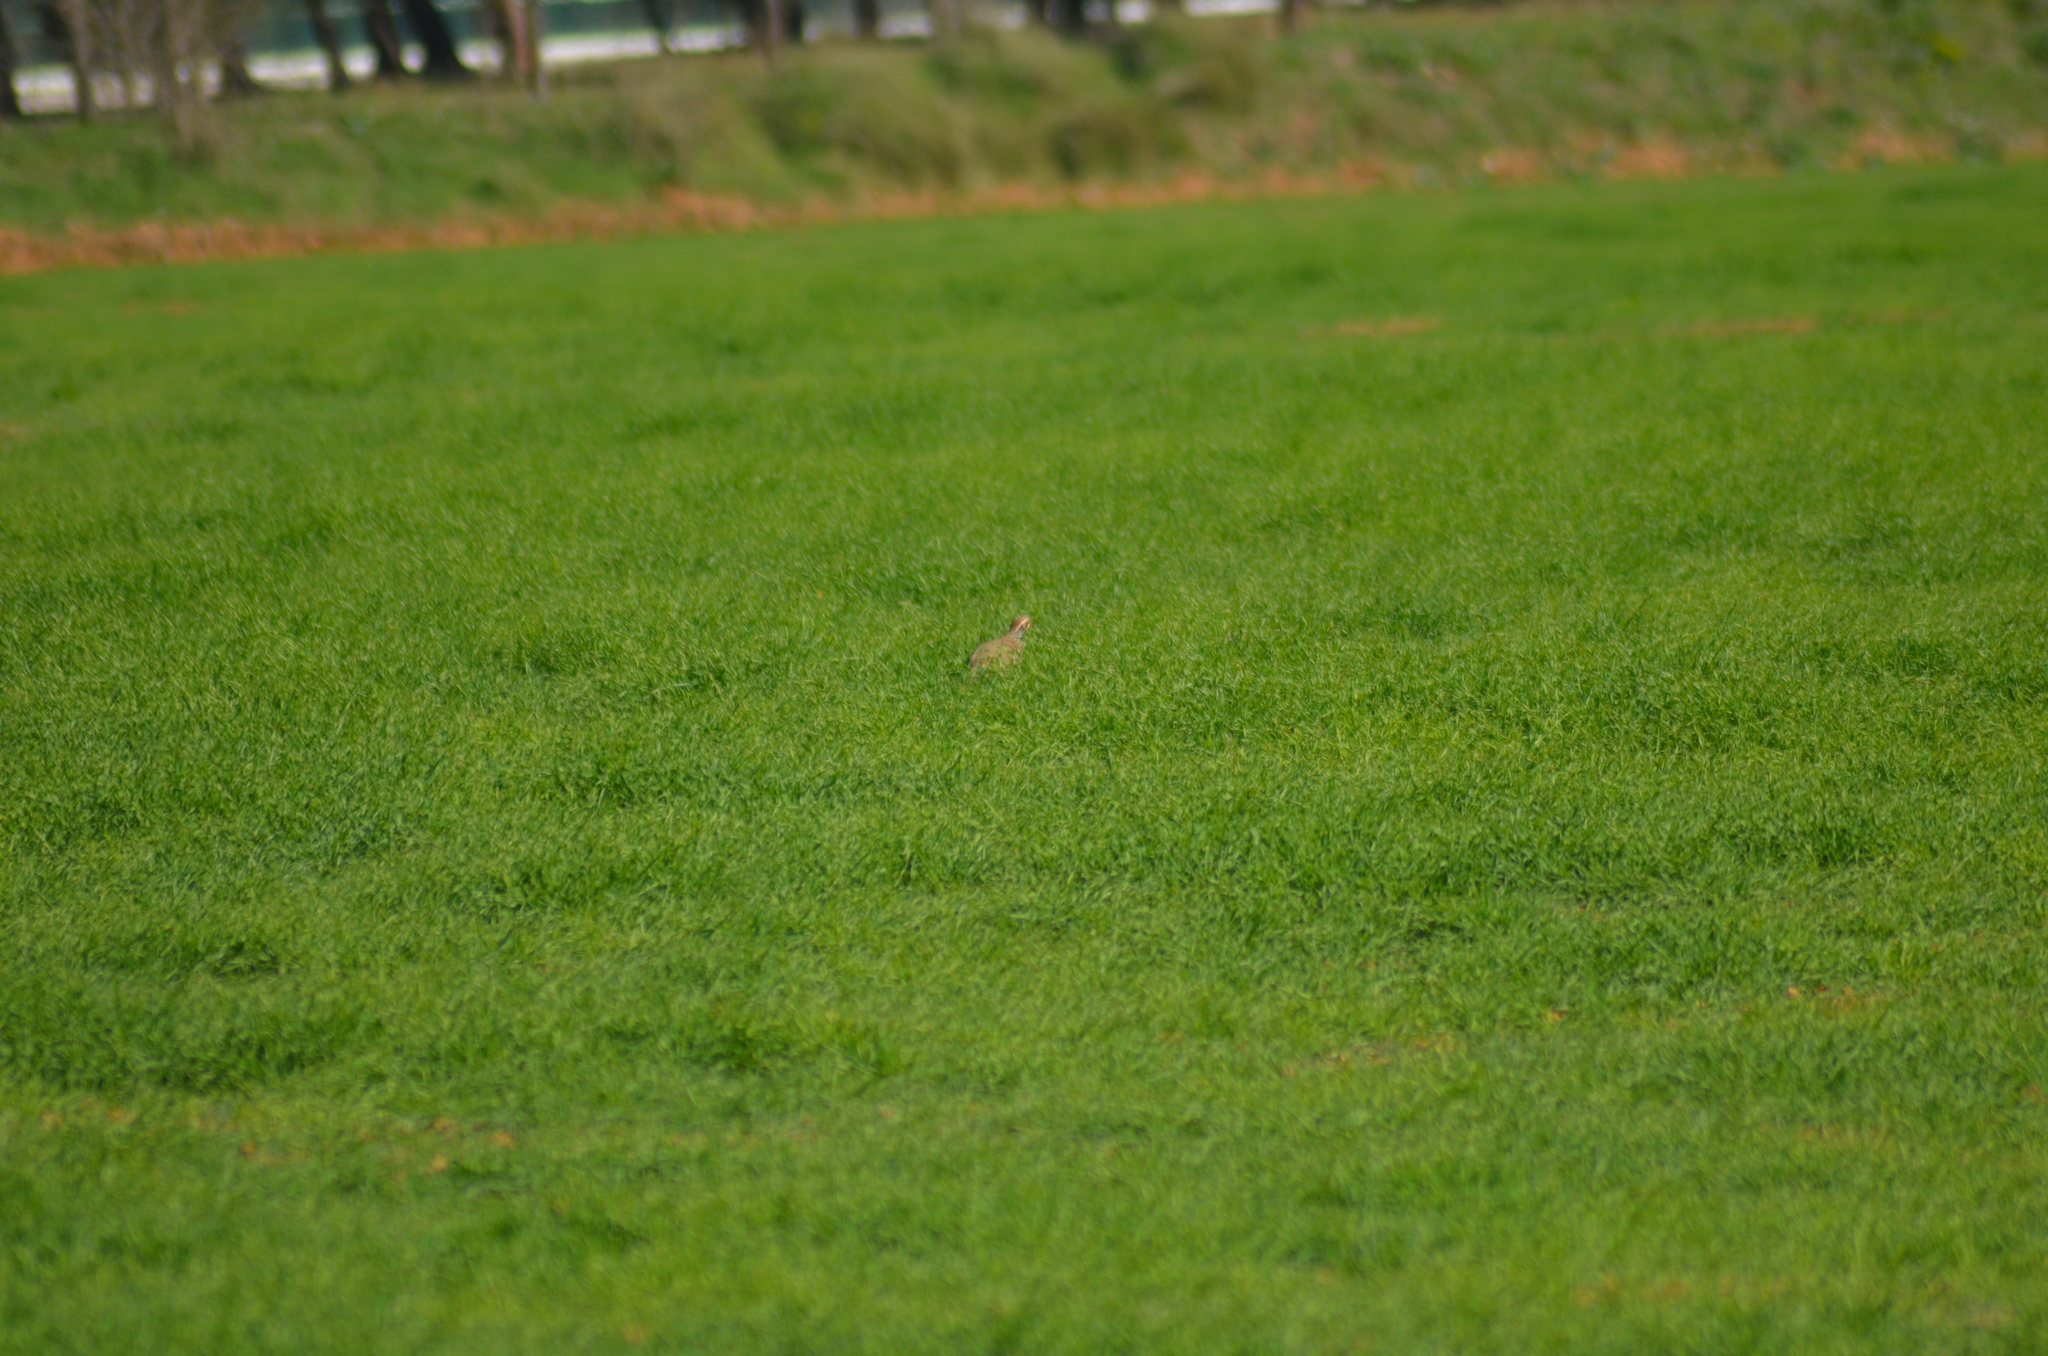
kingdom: Animalia
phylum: Chordata
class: Aves
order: Galliformes
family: Phasianidae
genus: Alectoris
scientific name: Alectoris rufa
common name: Red-legged partridge
